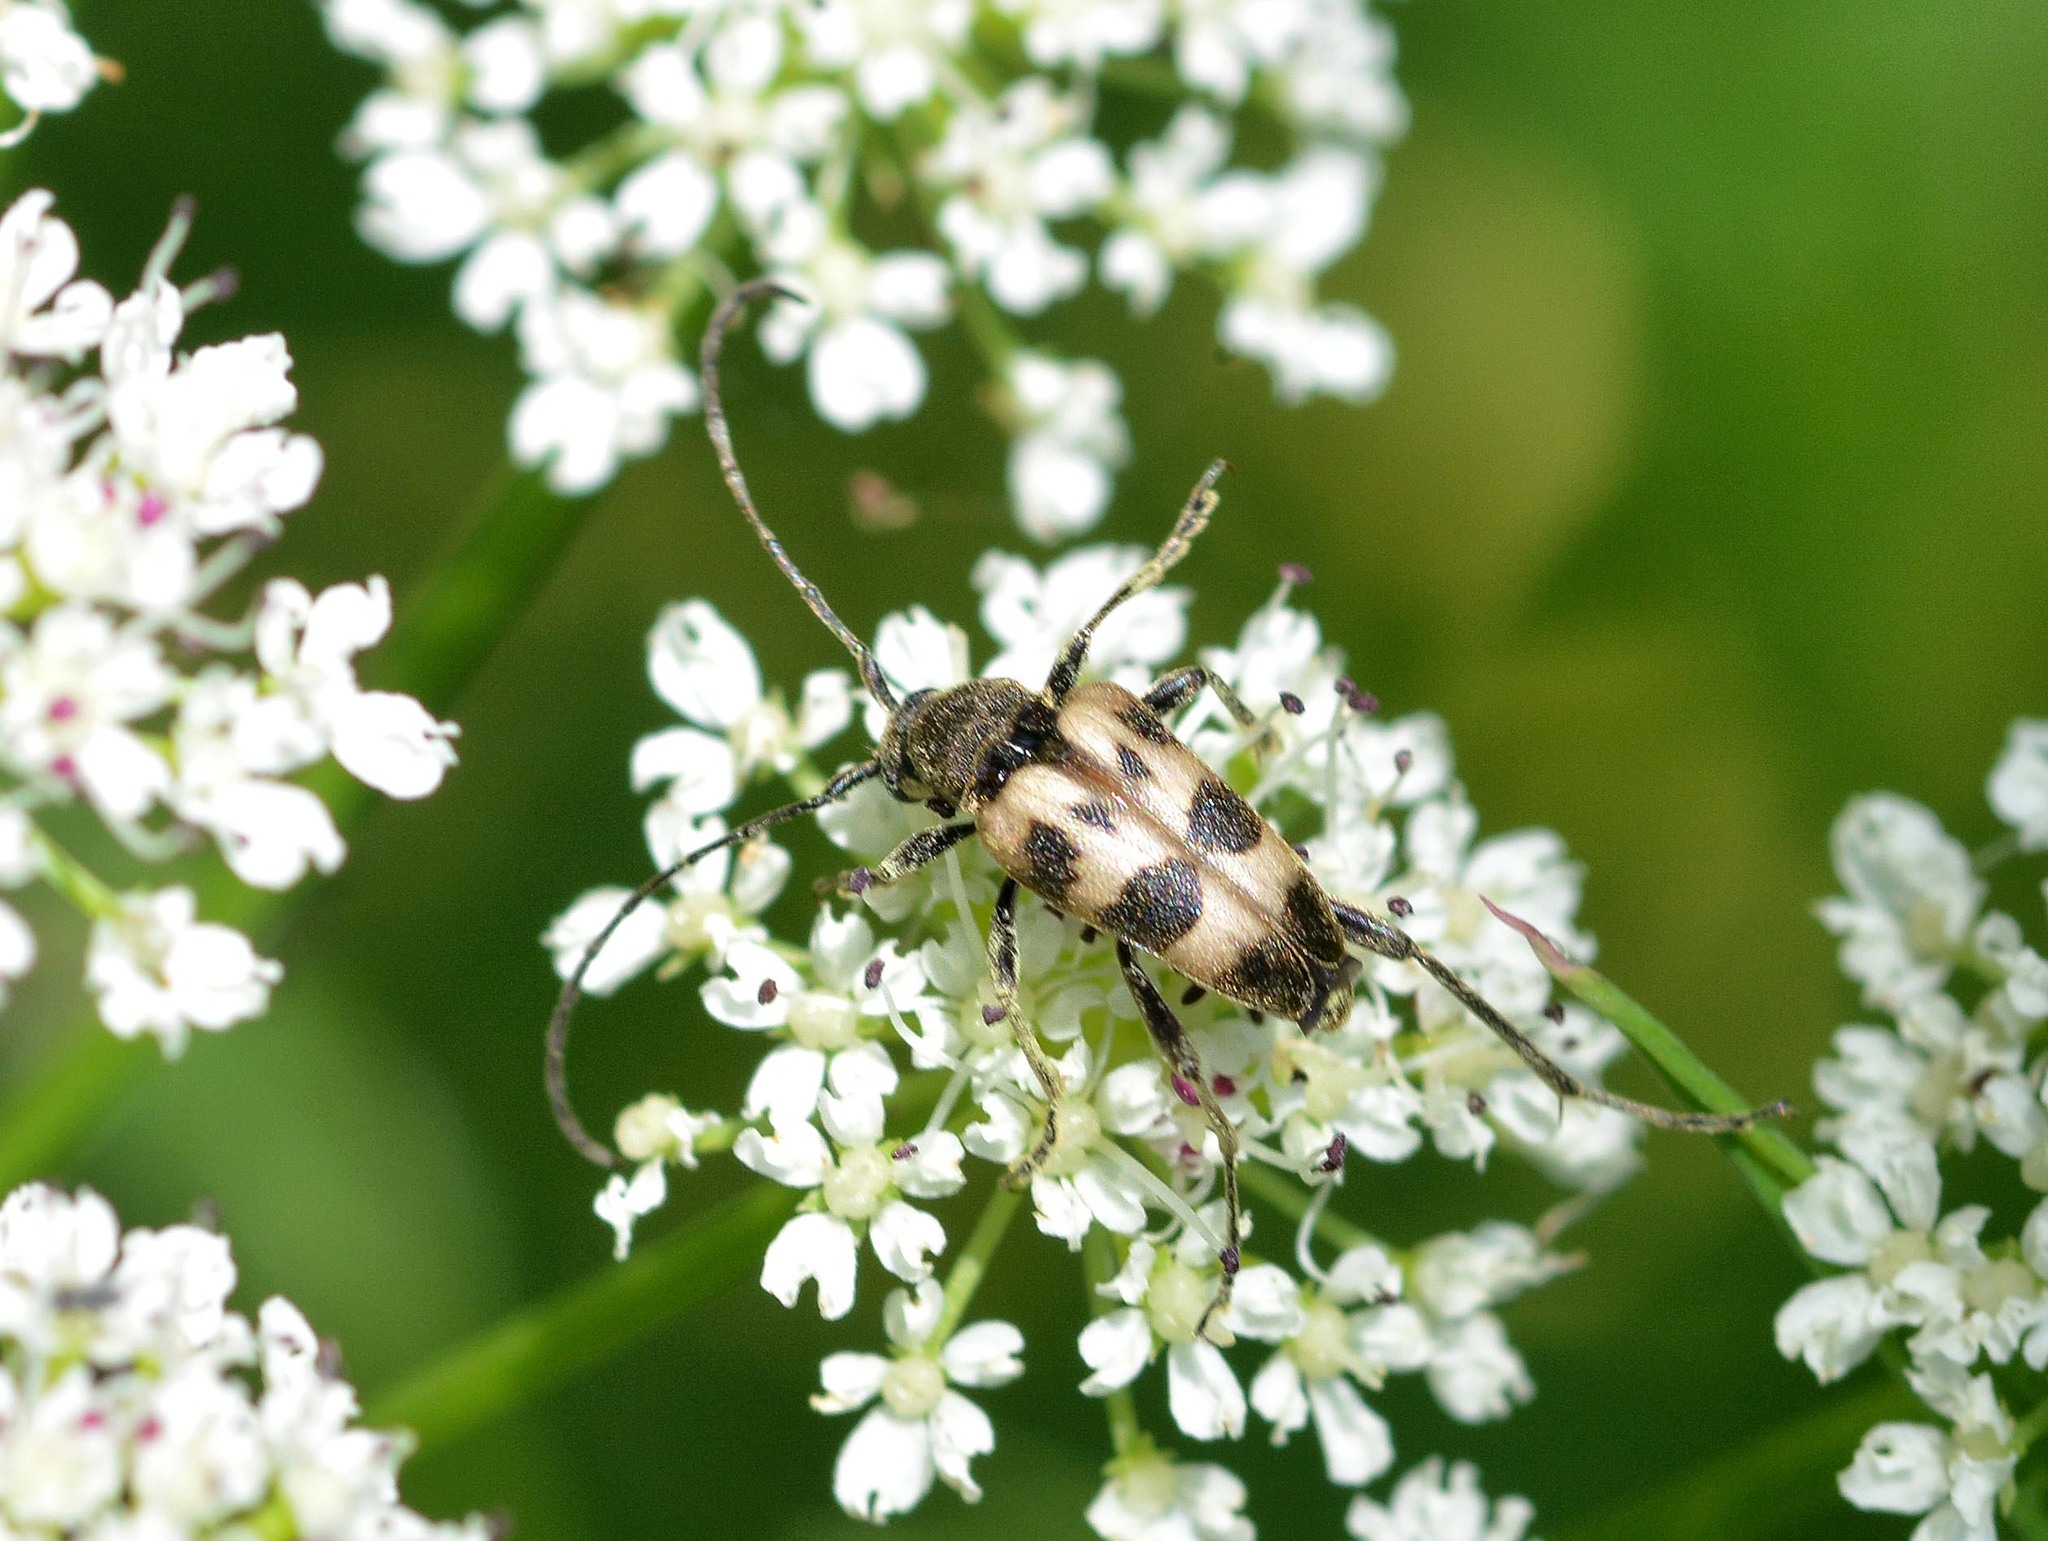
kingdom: Animalia
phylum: Arthropoda
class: Insecta
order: Coleoptera
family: Cerambycidae
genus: Pachytodes
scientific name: Pachytodes cerambyciformis
